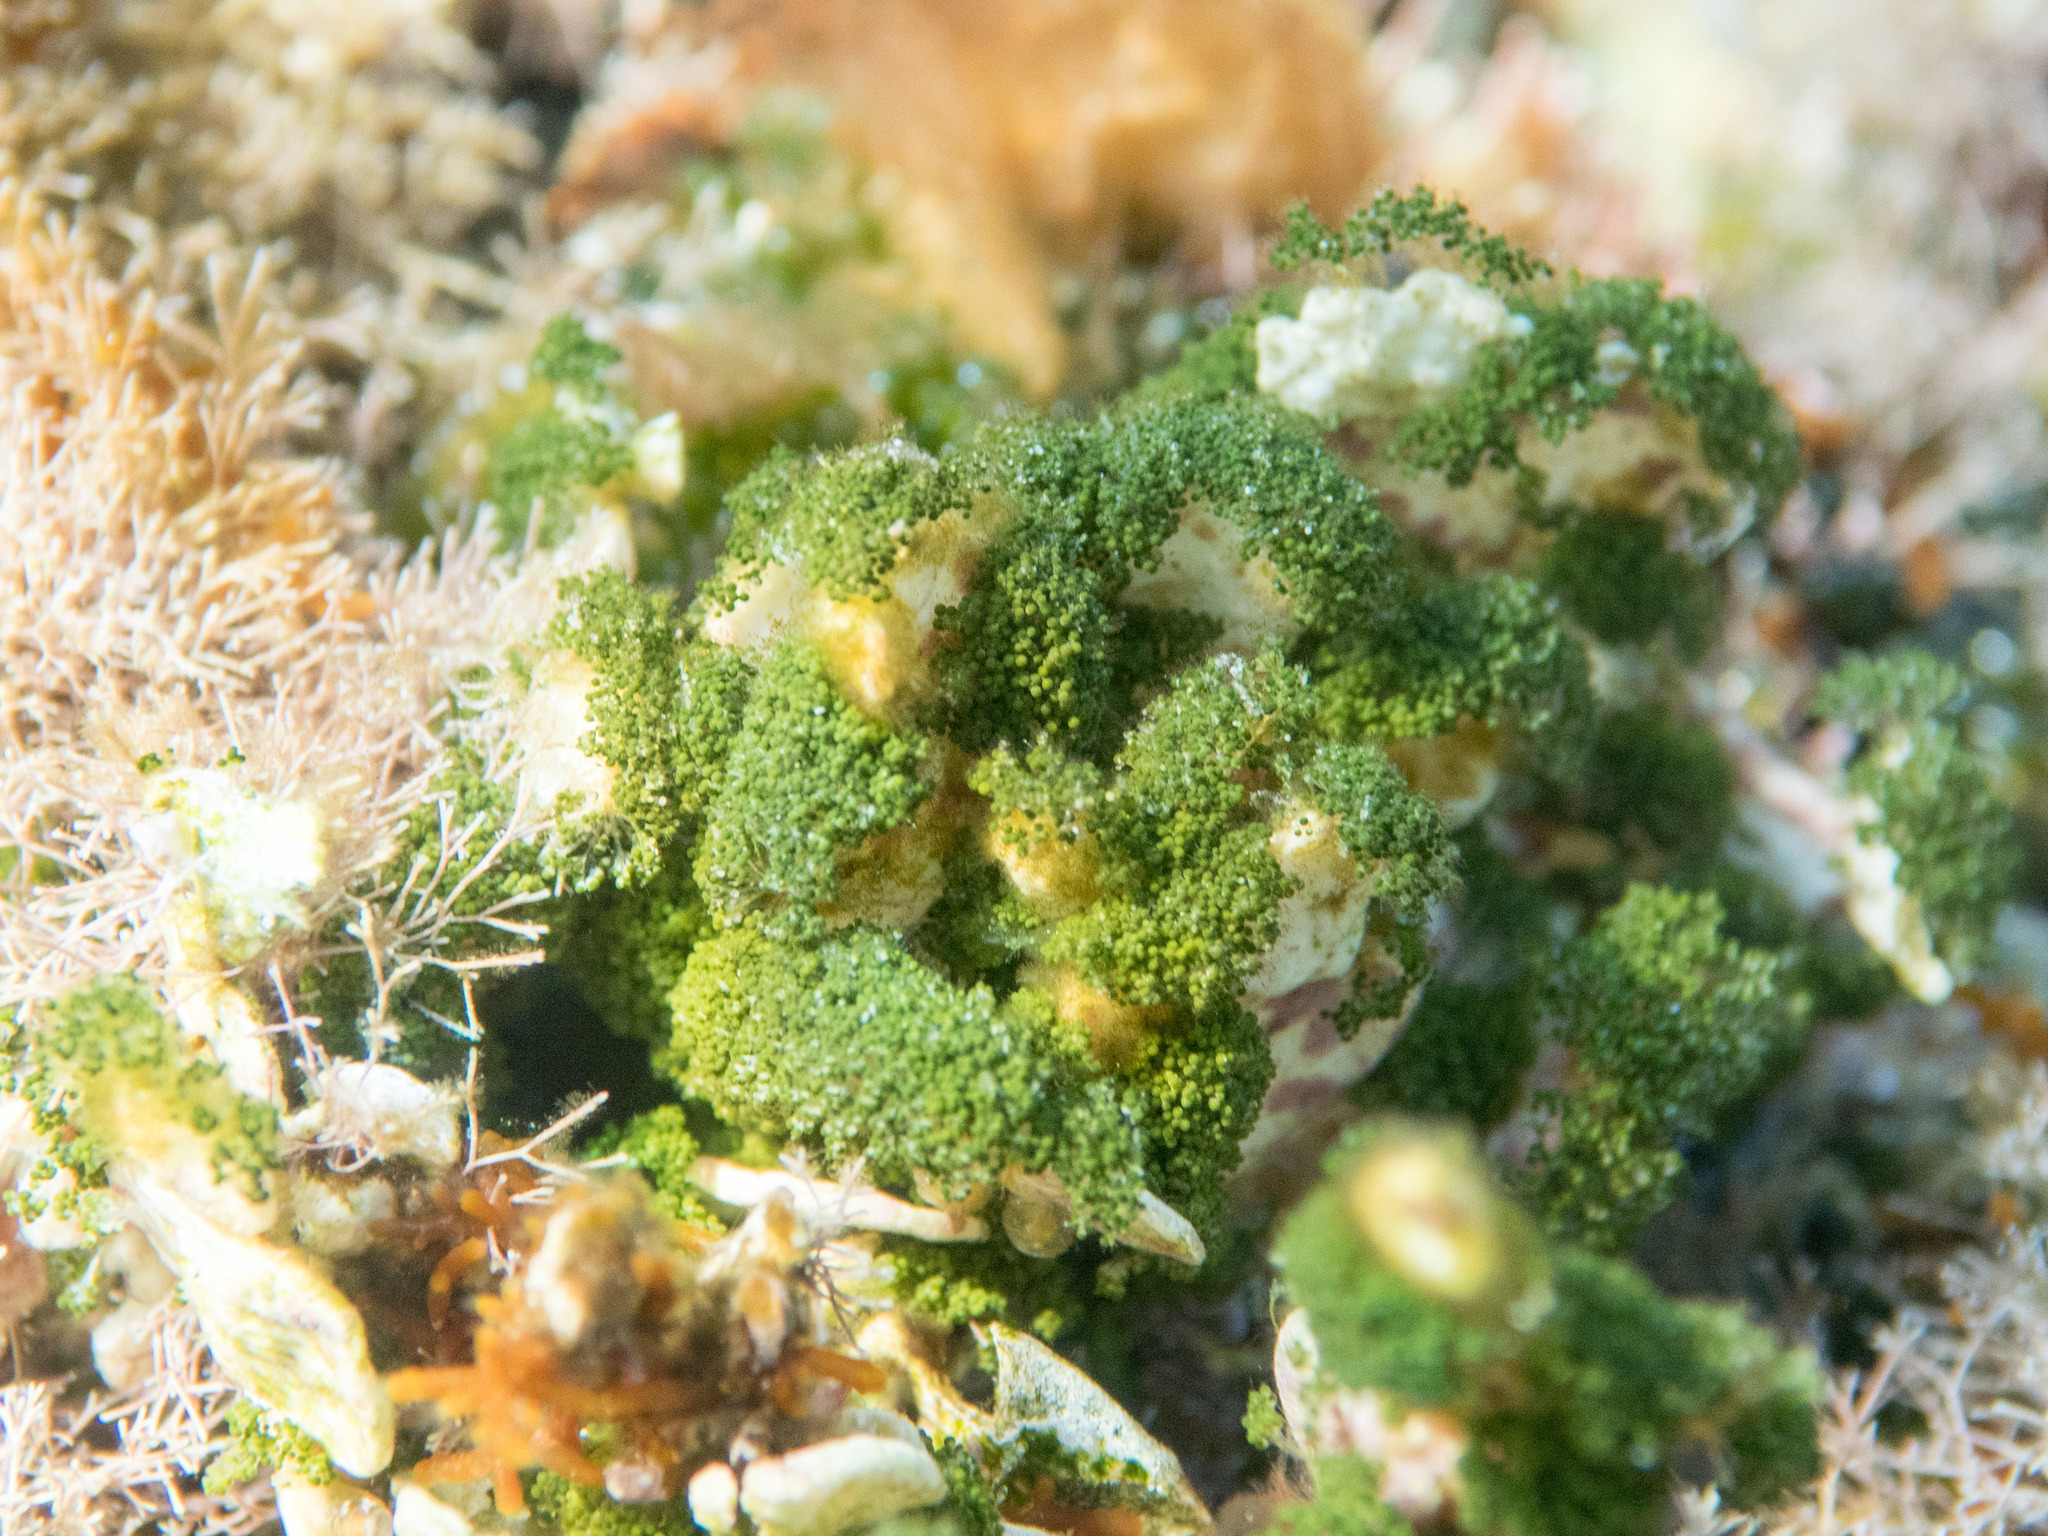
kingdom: Plantae
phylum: Chlorophyta
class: Ulvophyceae
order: Bryopsidales
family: Halimedaceae
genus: Halimeda
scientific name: Halimeda tuna
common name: Stalked lettuce leaf algae
